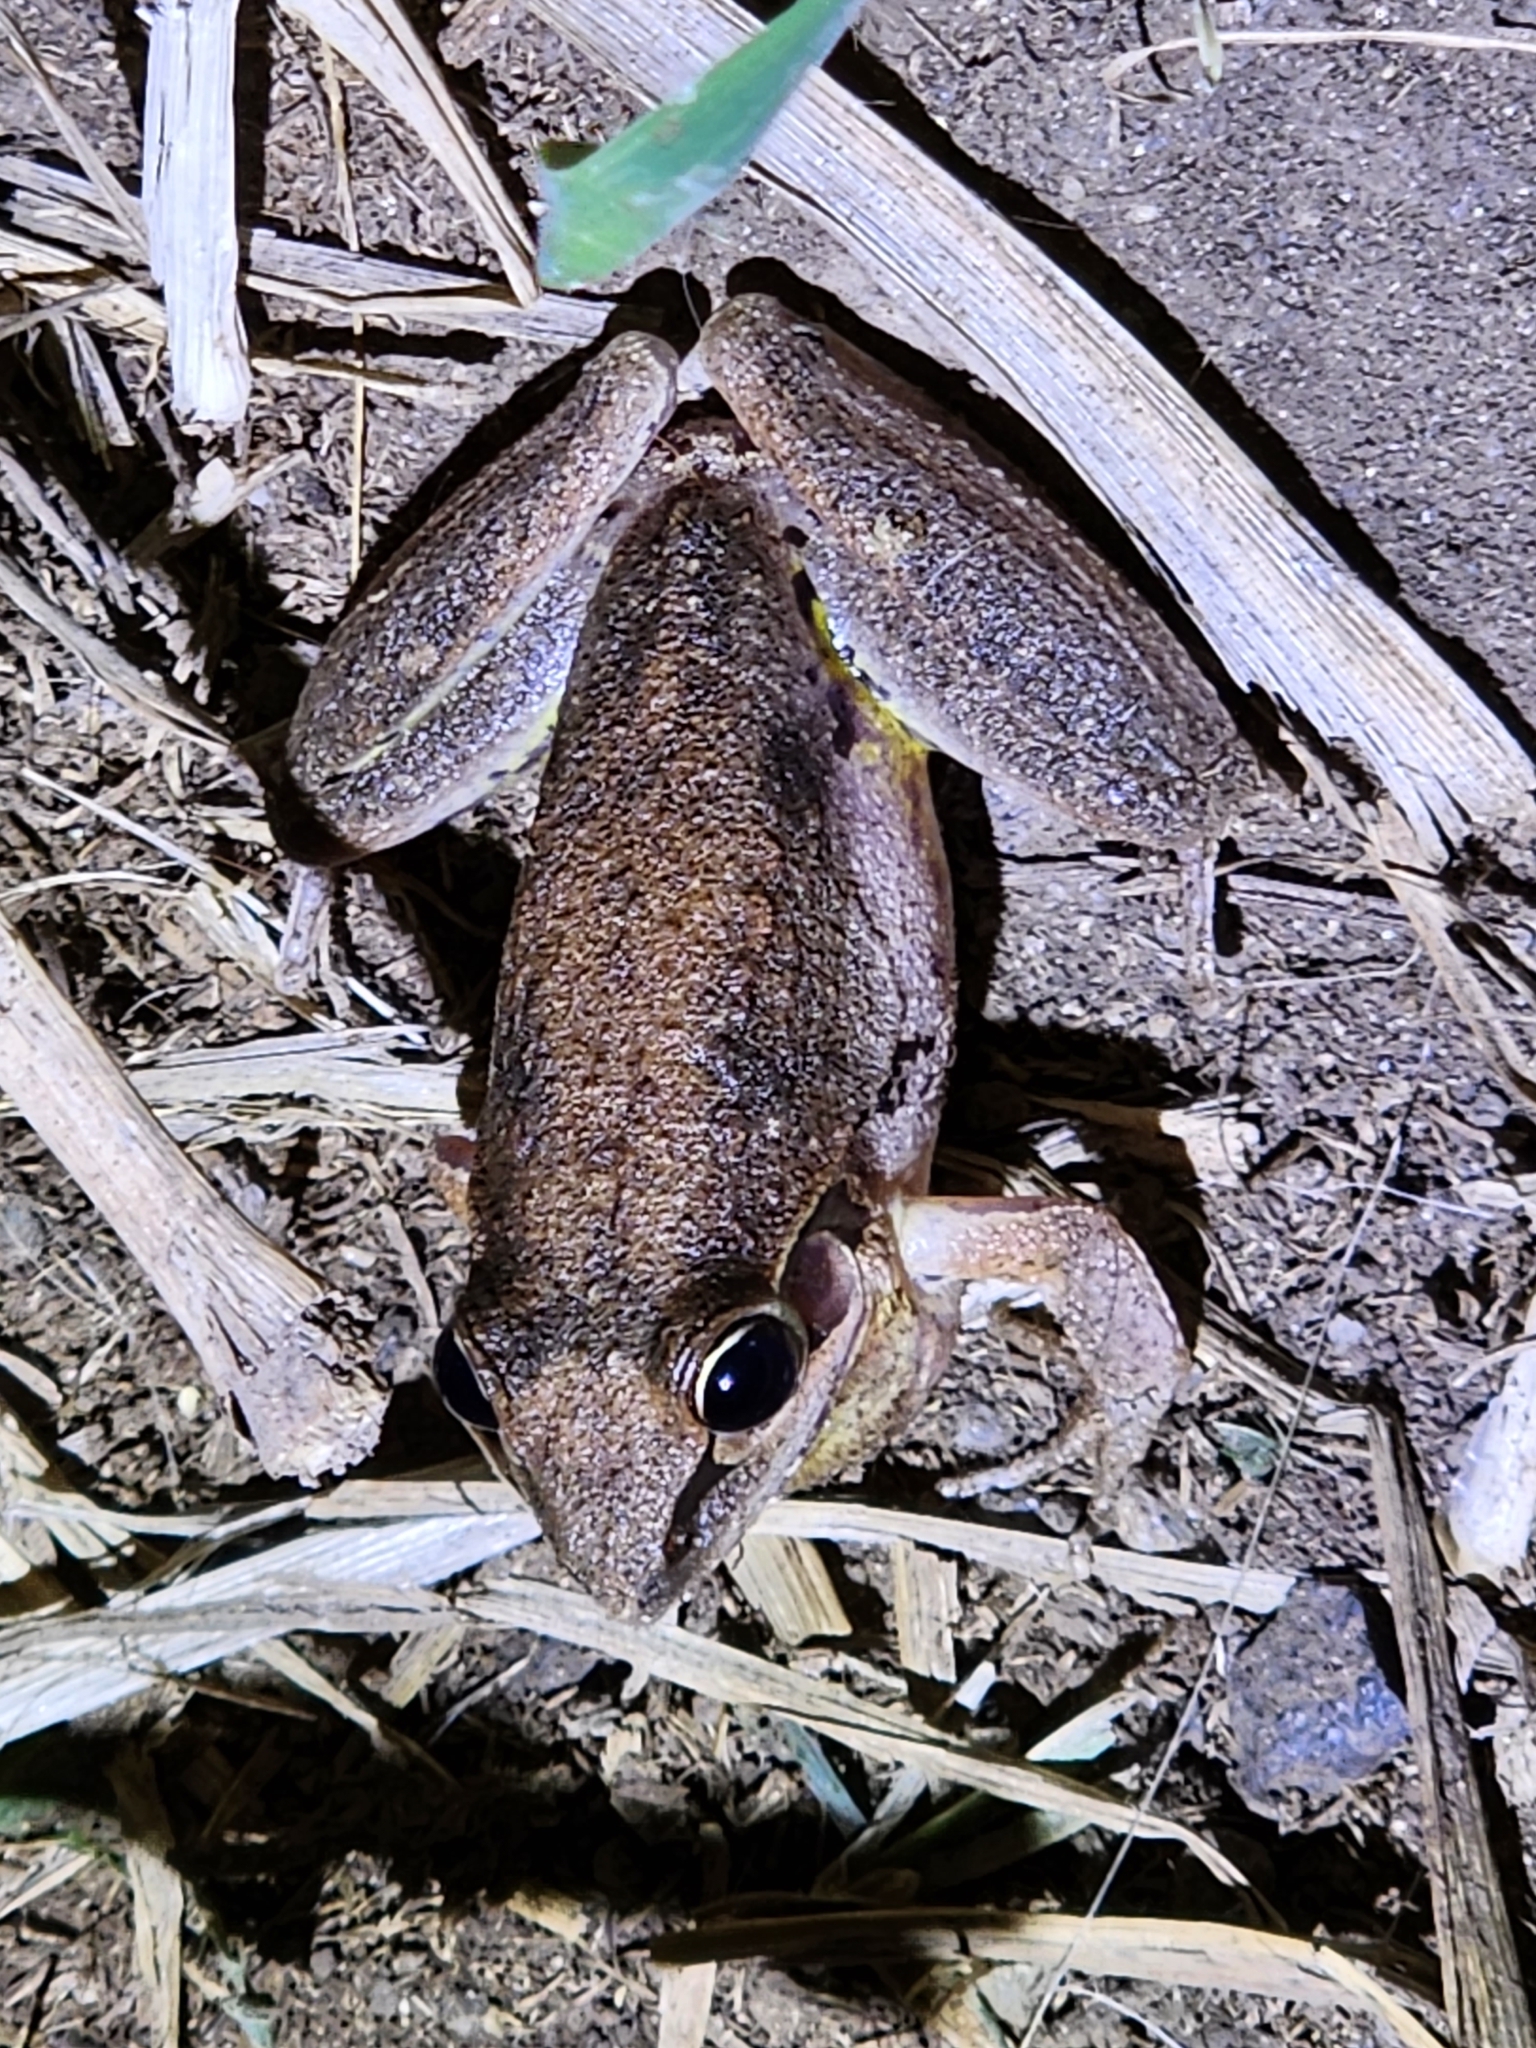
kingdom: Animalia
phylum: Chordata
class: Amphibia
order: Anura
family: Pelodryadidae
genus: Litoria
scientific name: Litoria latopalmata
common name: Broad-palmed rocket frog
